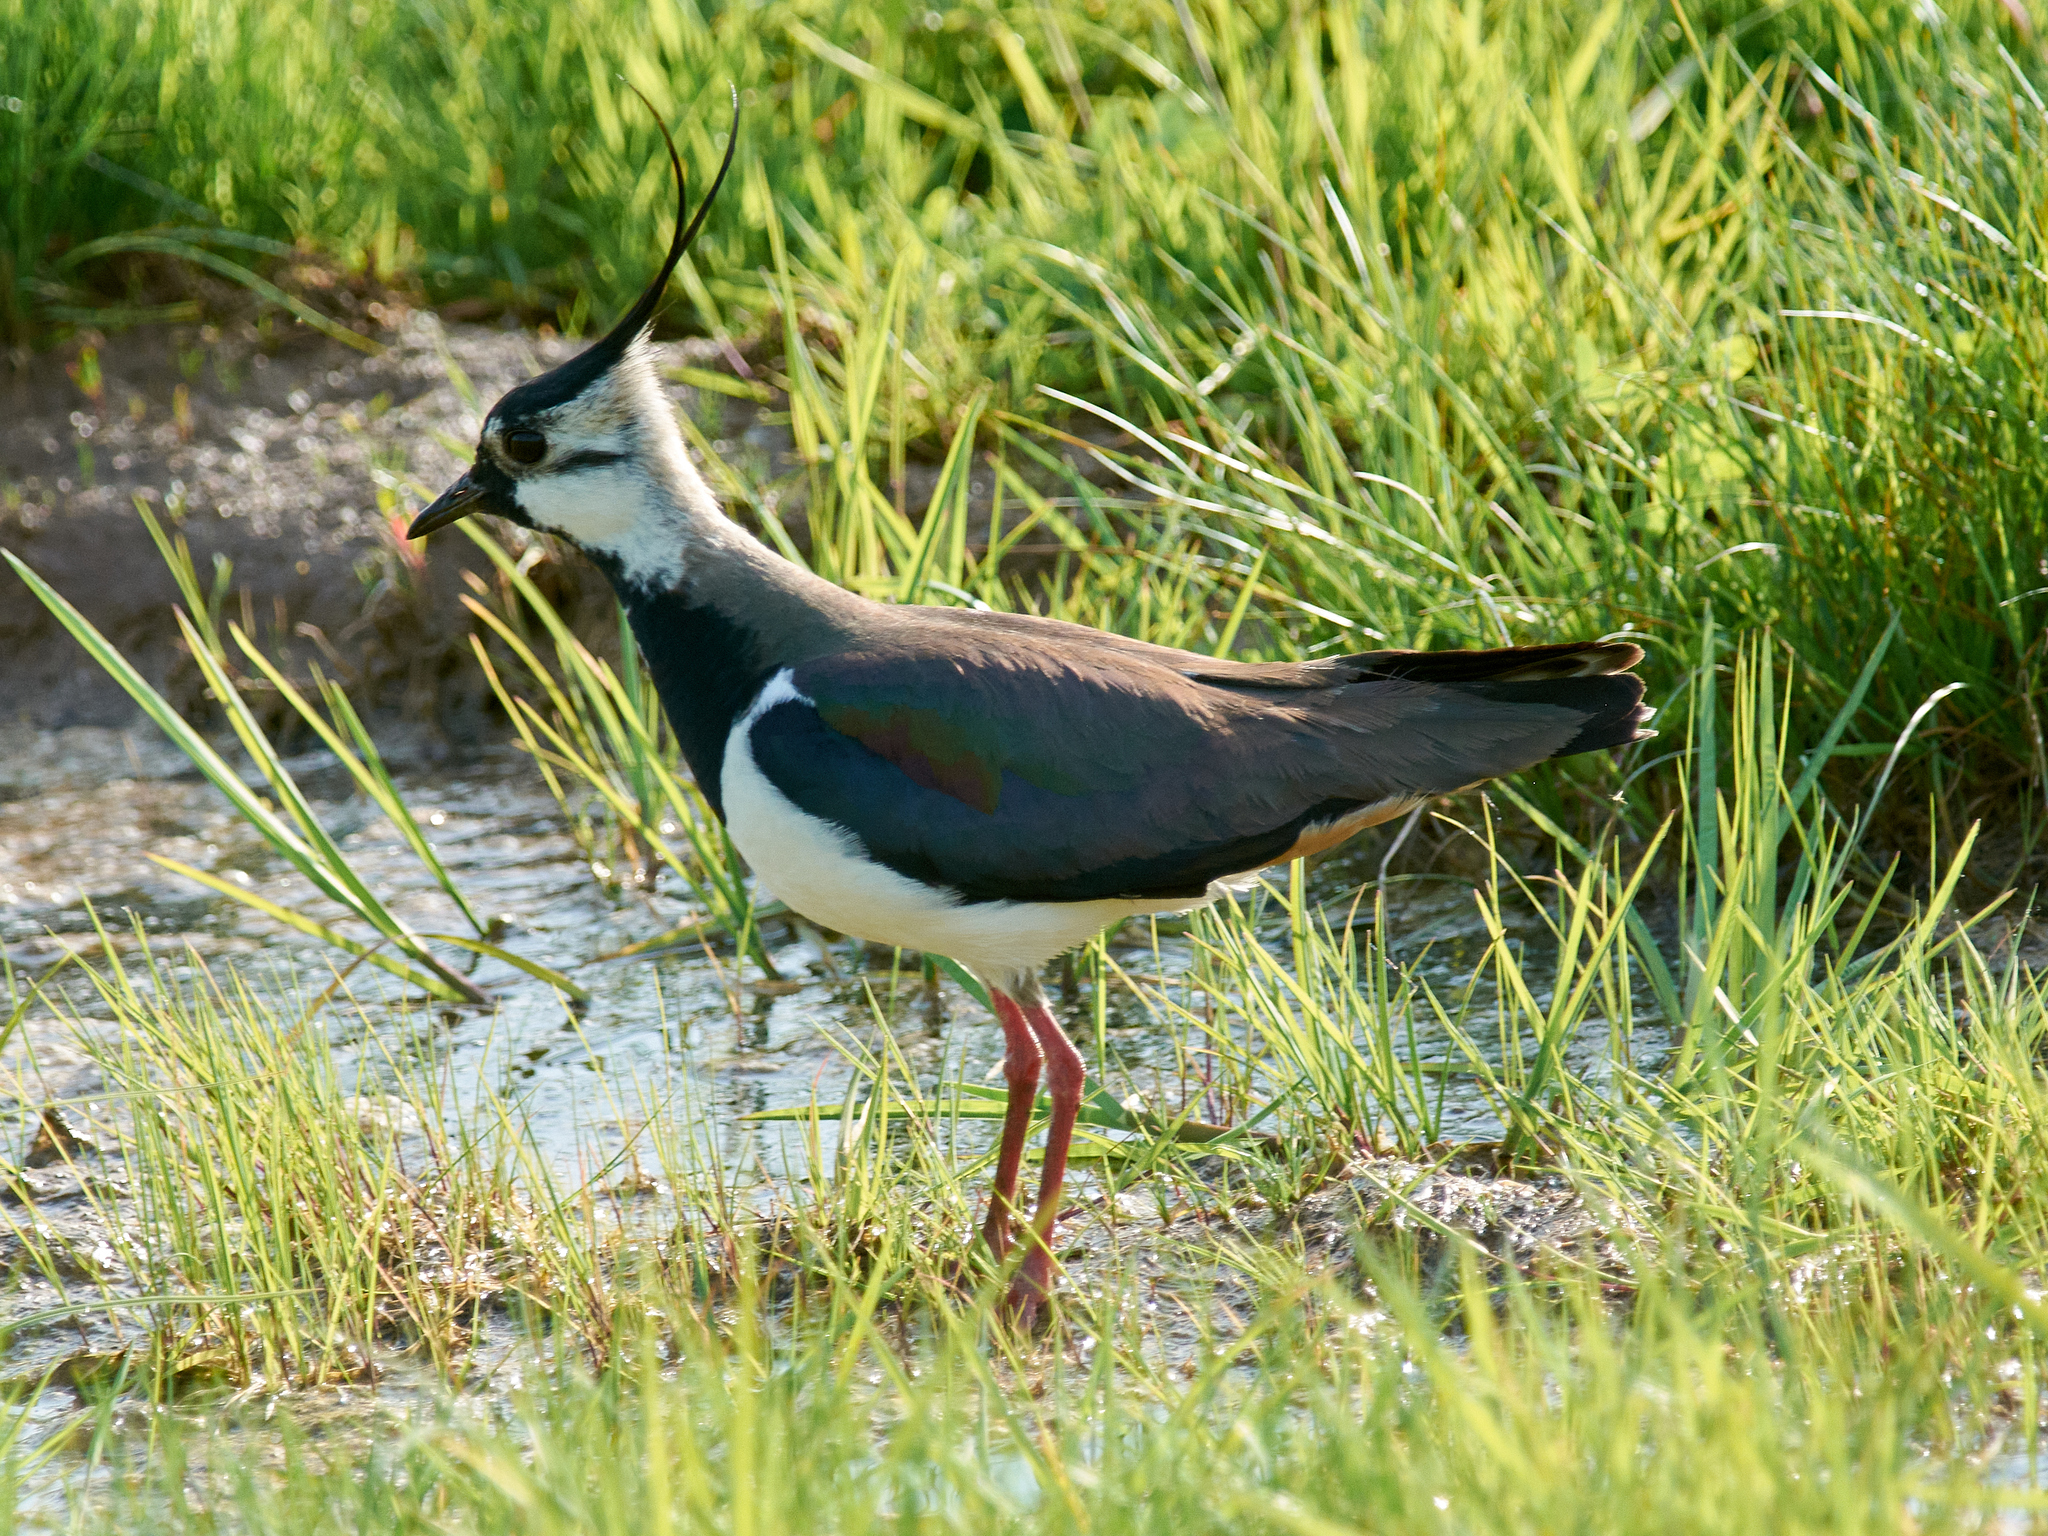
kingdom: Animalia
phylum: Chordata
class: Aves
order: Charadriiformes
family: Charadriidae
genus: Vanellus
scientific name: Vanellus vanellus
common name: Northern lapwing
